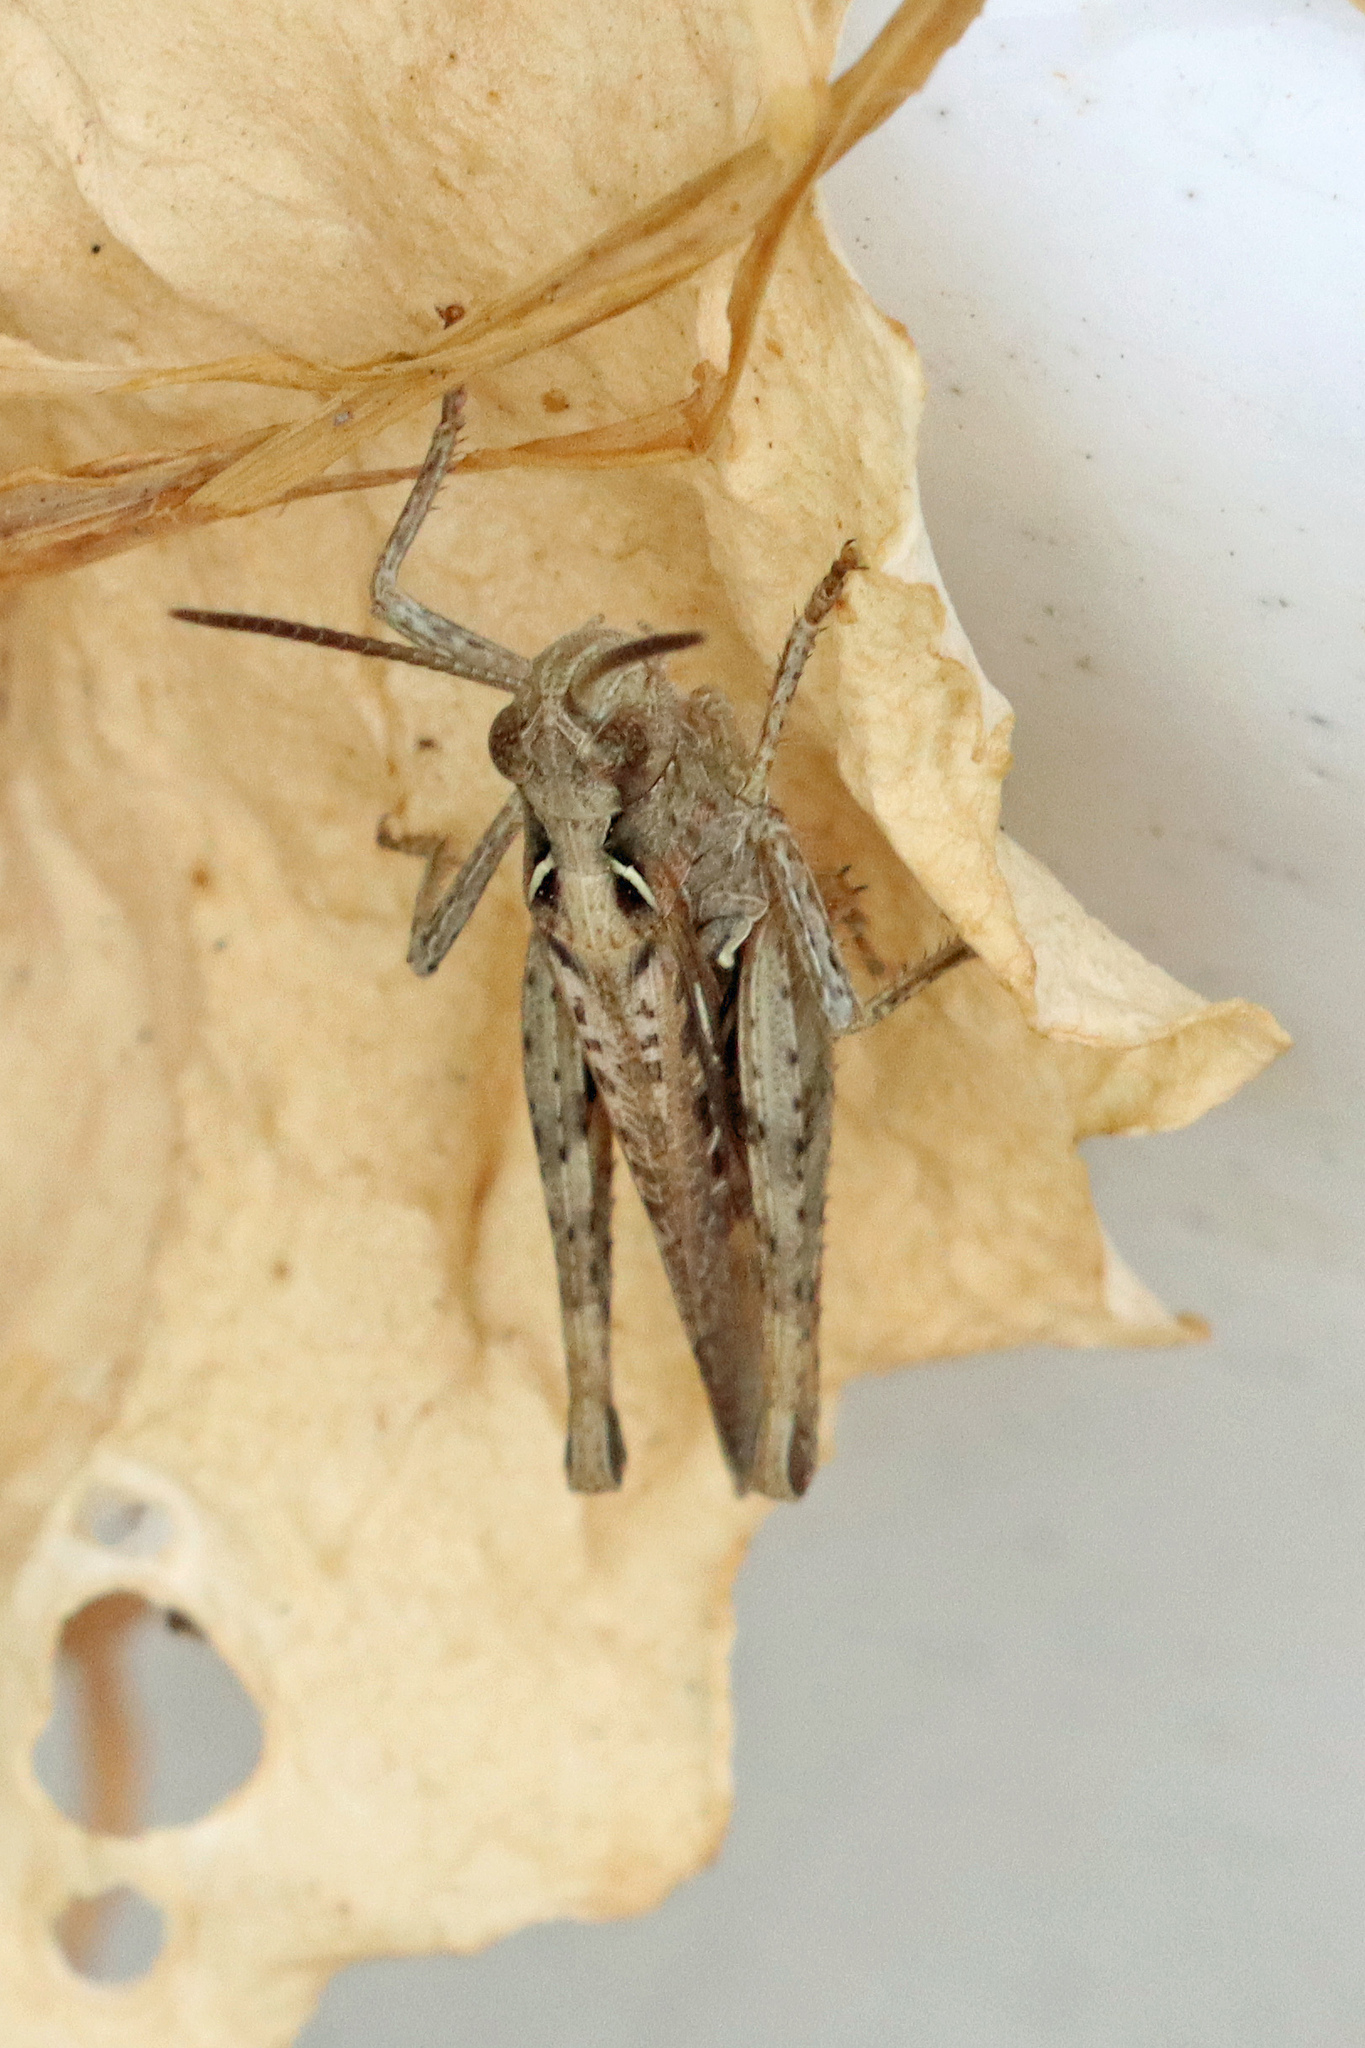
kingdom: Animalia
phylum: Arthropoda
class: Insecta
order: Orthoptera
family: Acrididae
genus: Chorthippus
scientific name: Chorthippus brunneus
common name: Field grasshopper
